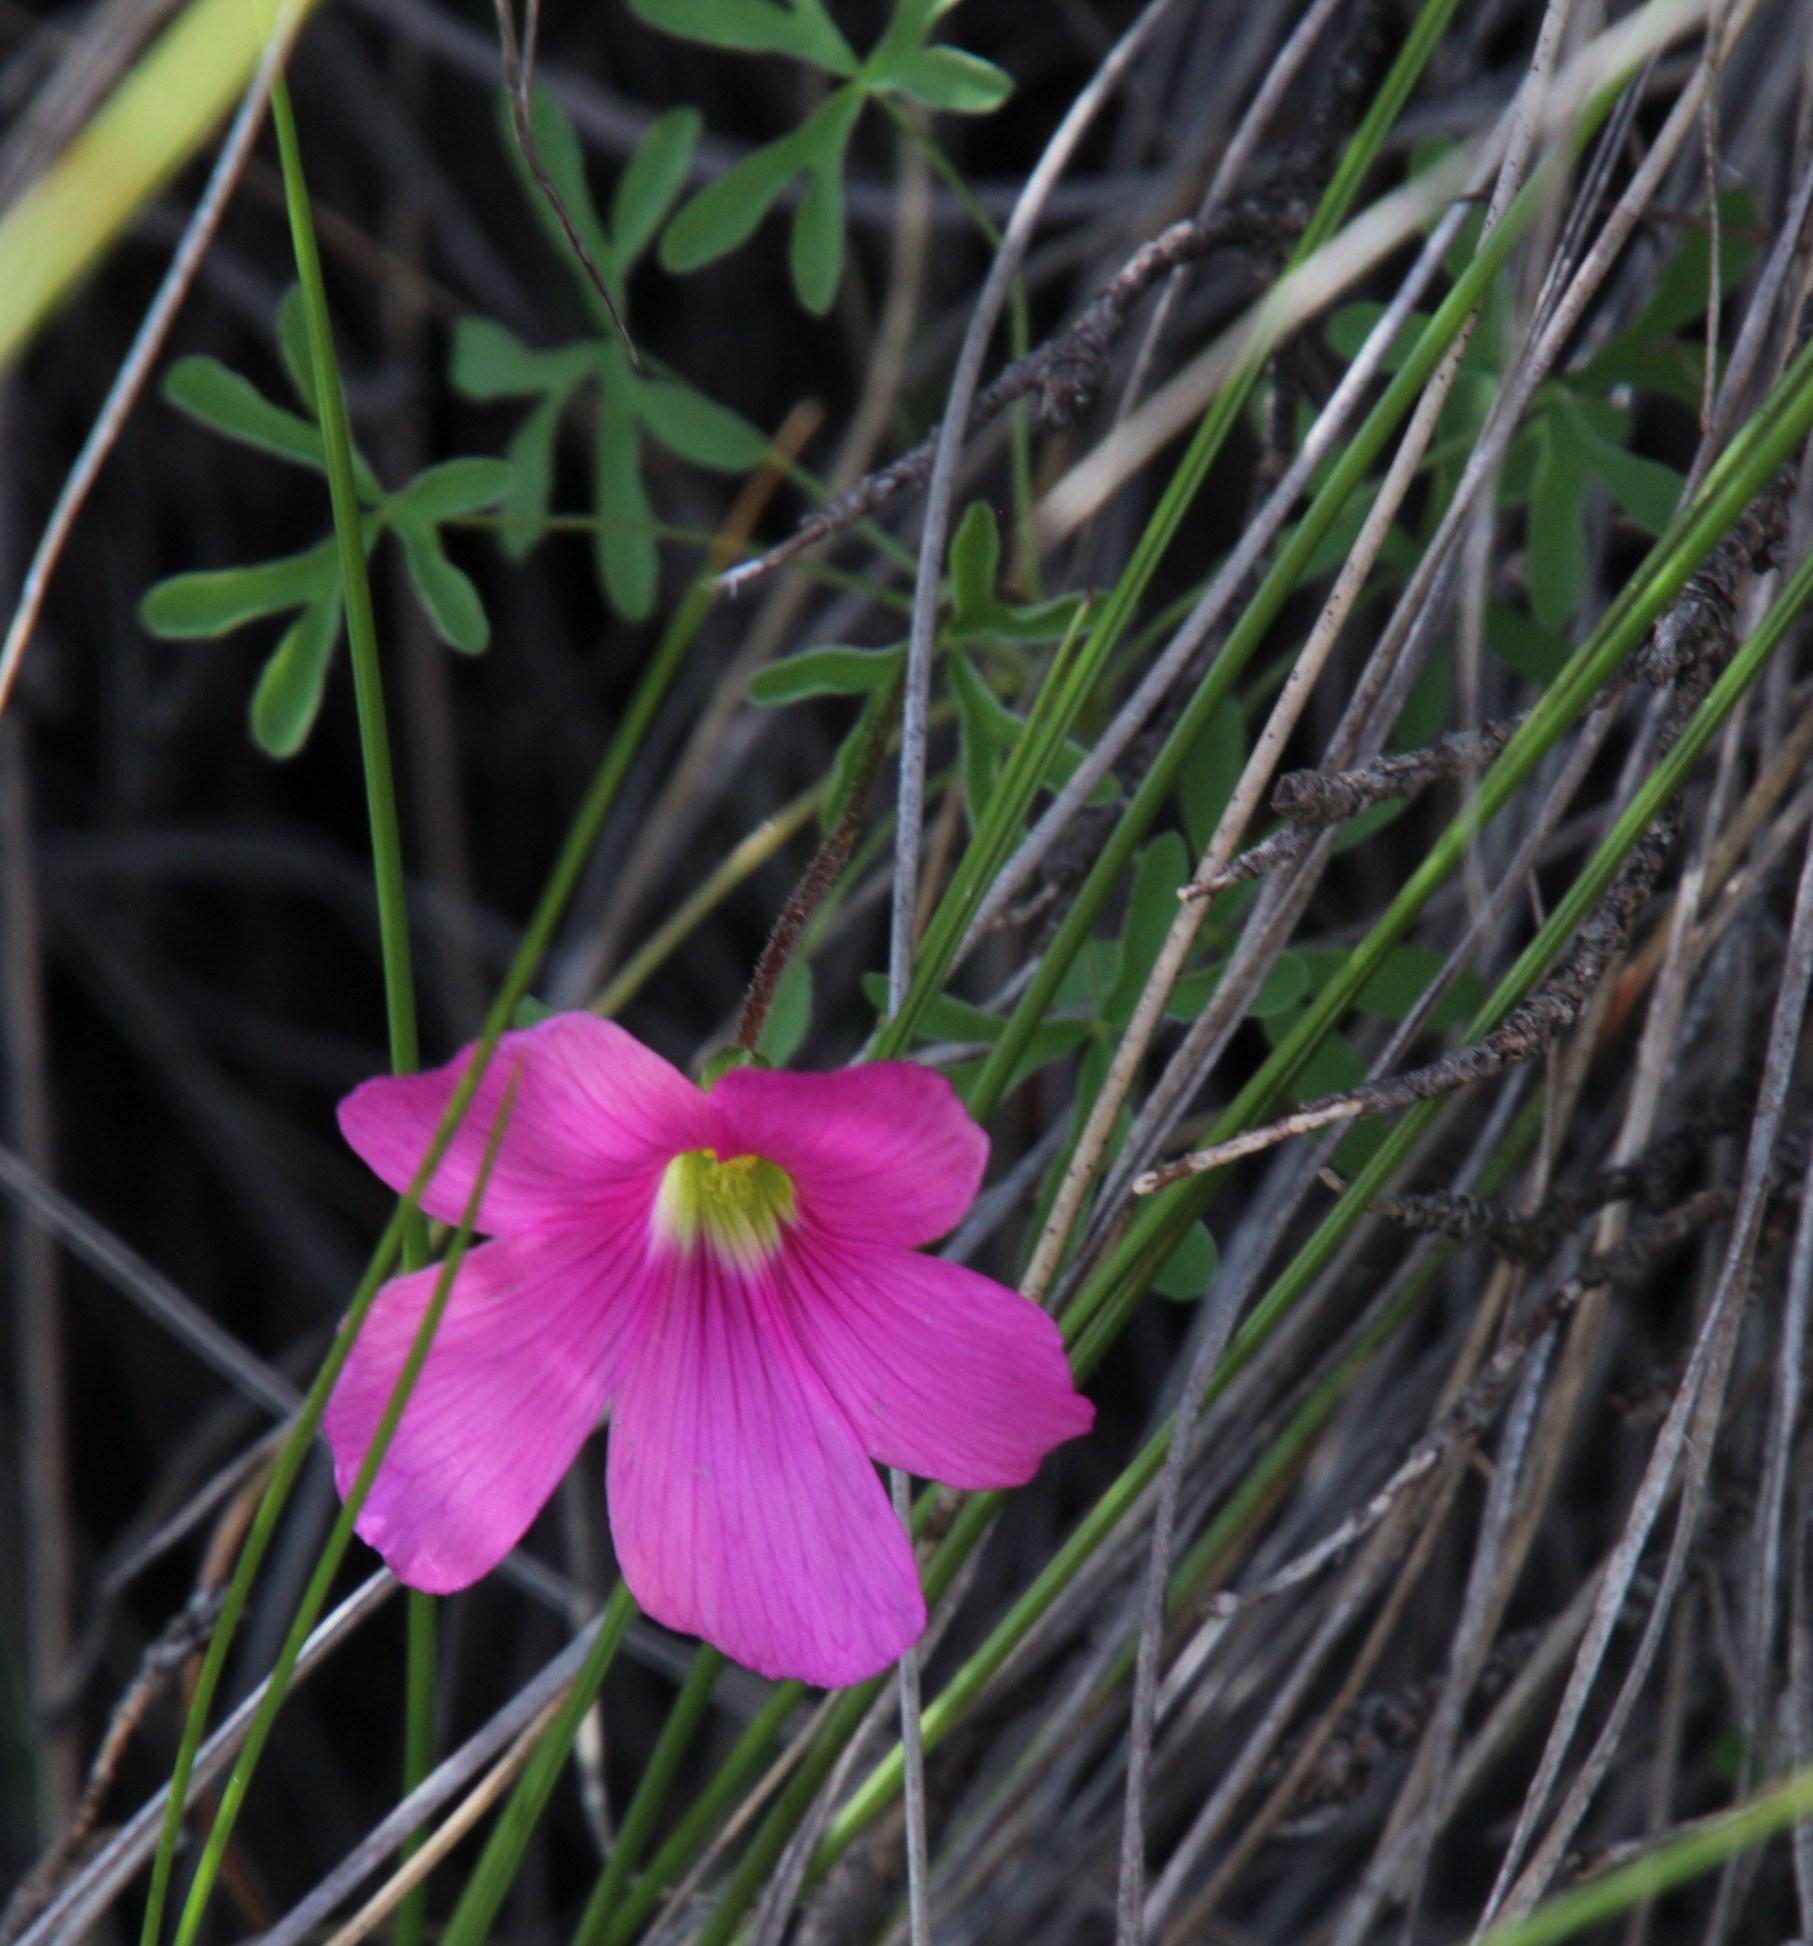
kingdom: Plantae
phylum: Tracheophyta
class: Magnoliopsida
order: Oxalidales
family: Oxalidaceae
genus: Oxalis
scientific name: Oxalis smithiana
